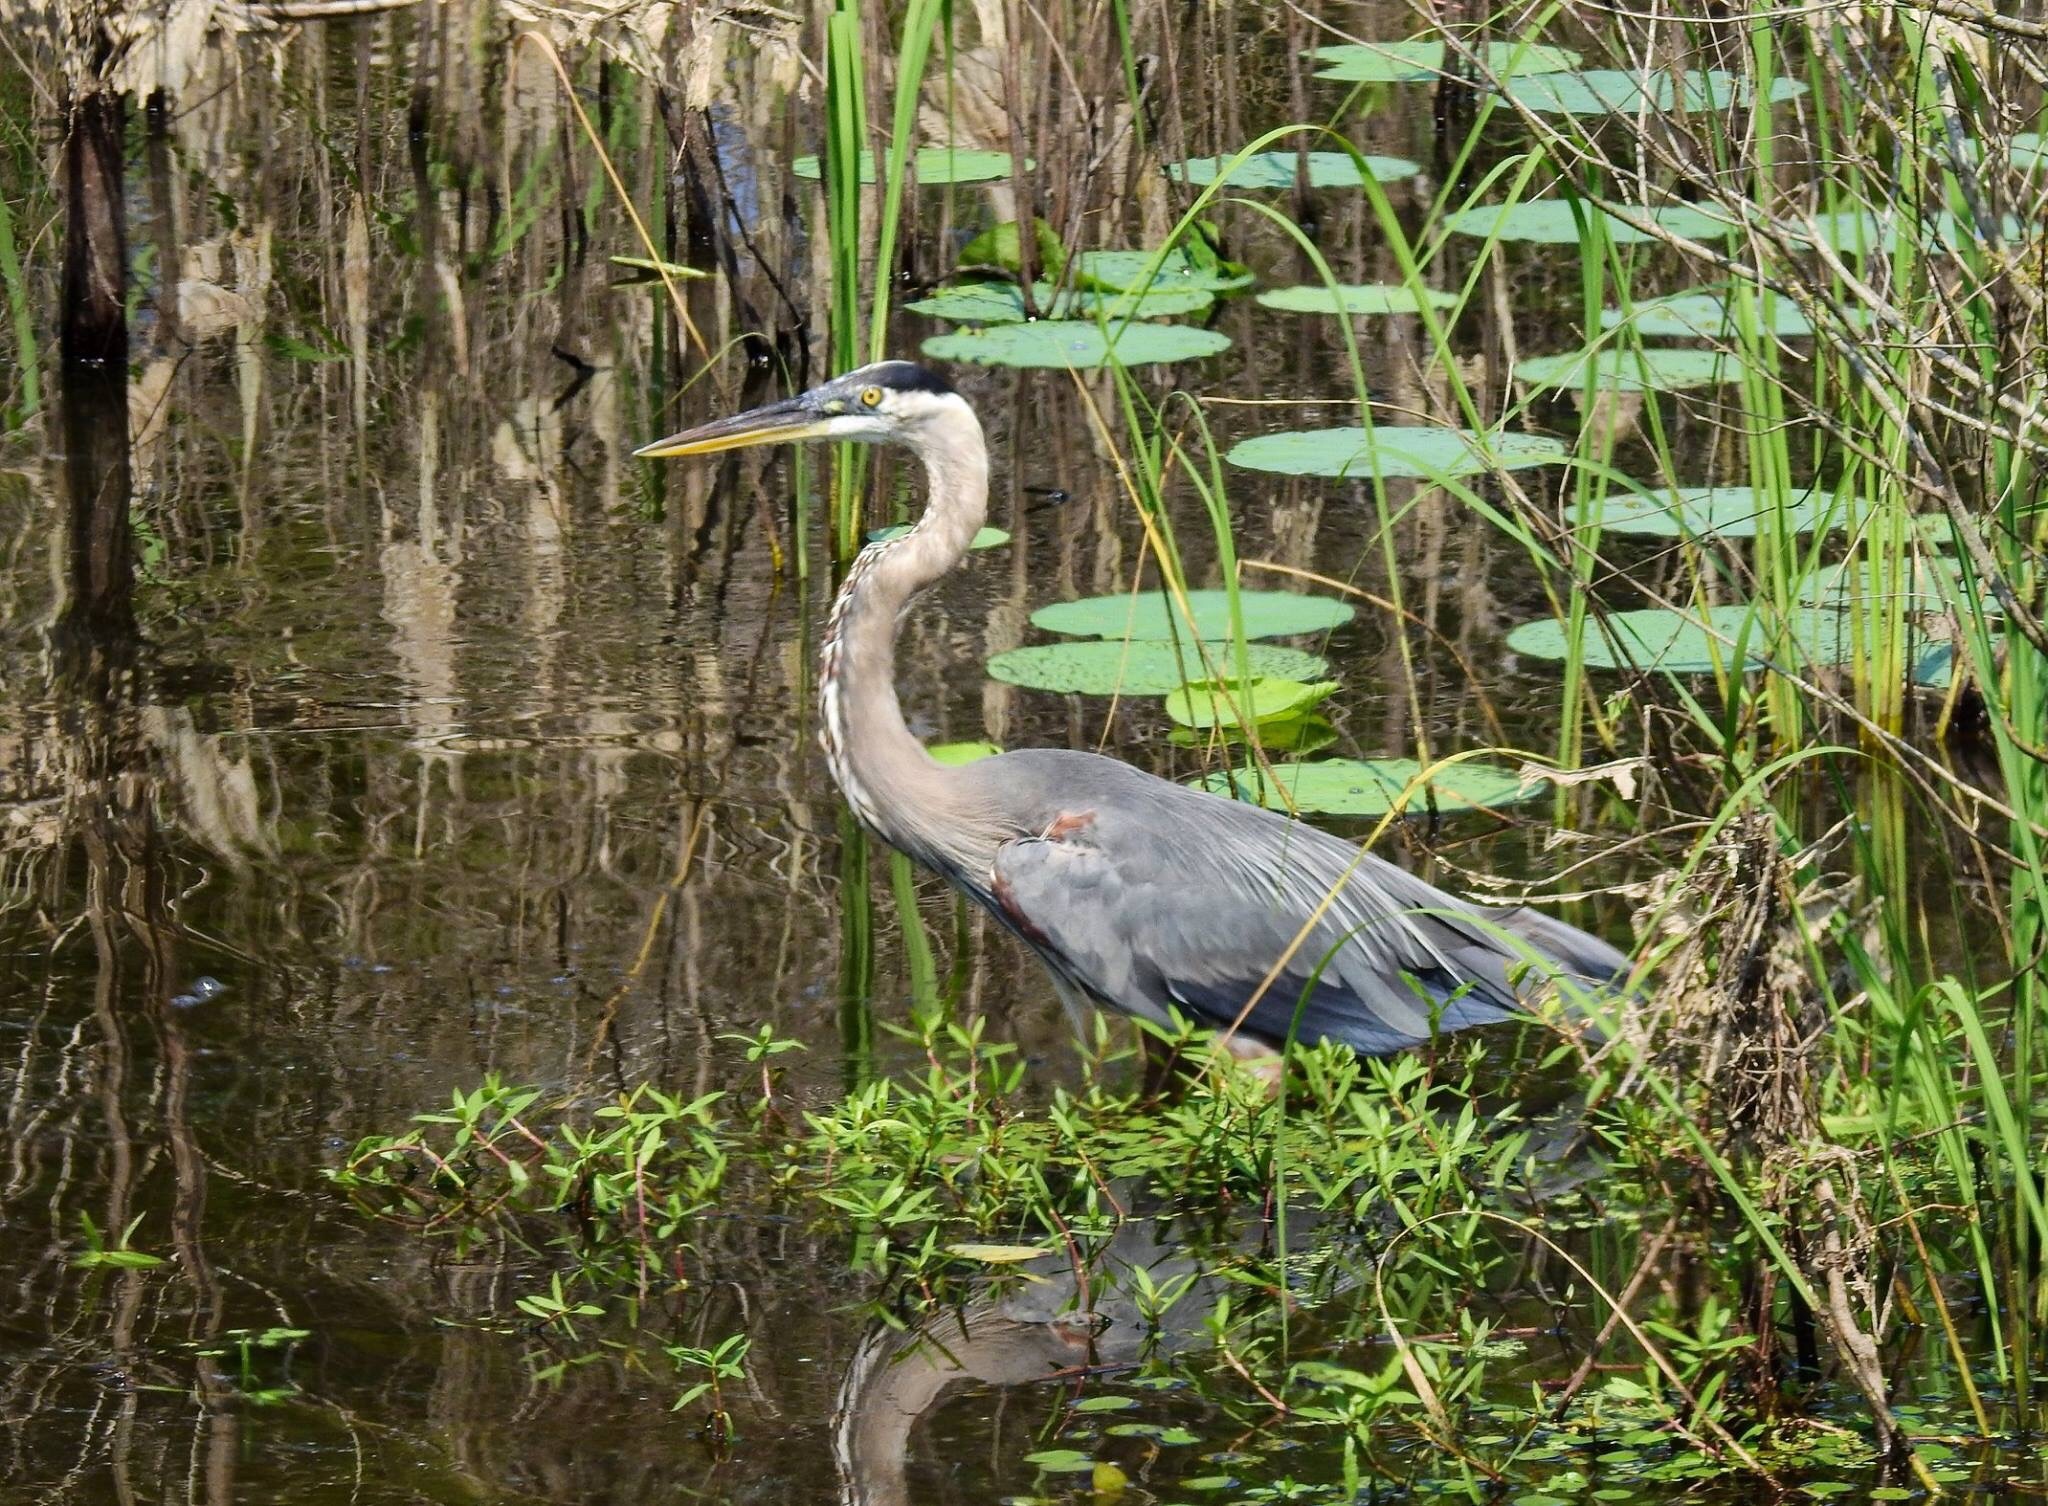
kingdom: Animalia
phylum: Chordata
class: Aves
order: Pelecaniformes
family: Ardeidae
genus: Ardea
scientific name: Ardea herodias
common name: Great blue heron
